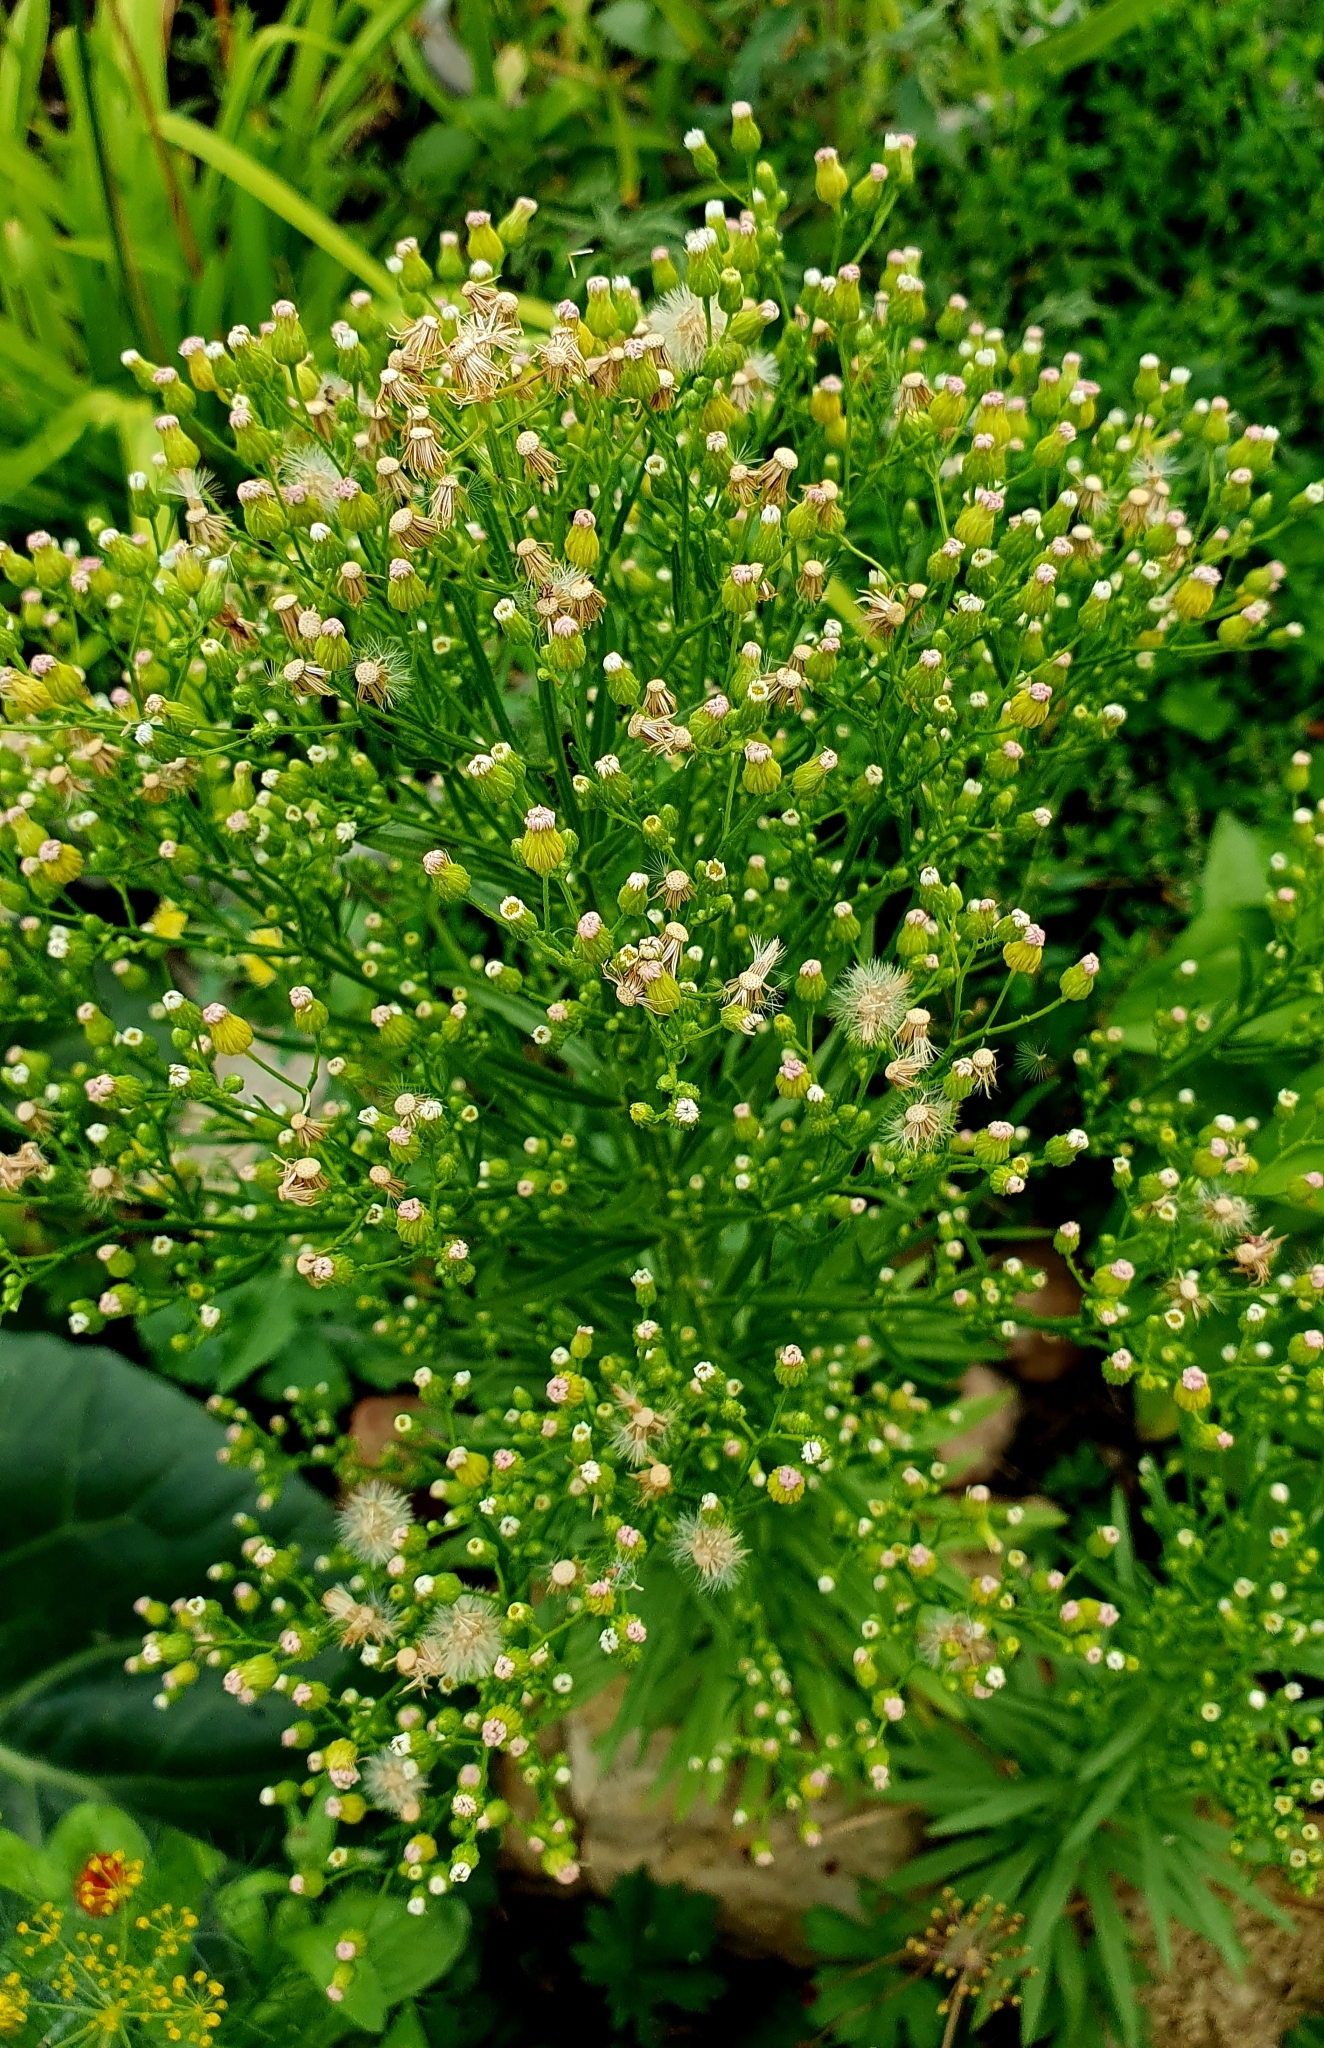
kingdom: Plantae
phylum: Tracheophyta
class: Magnoliopsida
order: Asterales
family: Asteraceae
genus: Erigeron
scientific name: Erigeron canadensis
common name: Canadian fleabane
